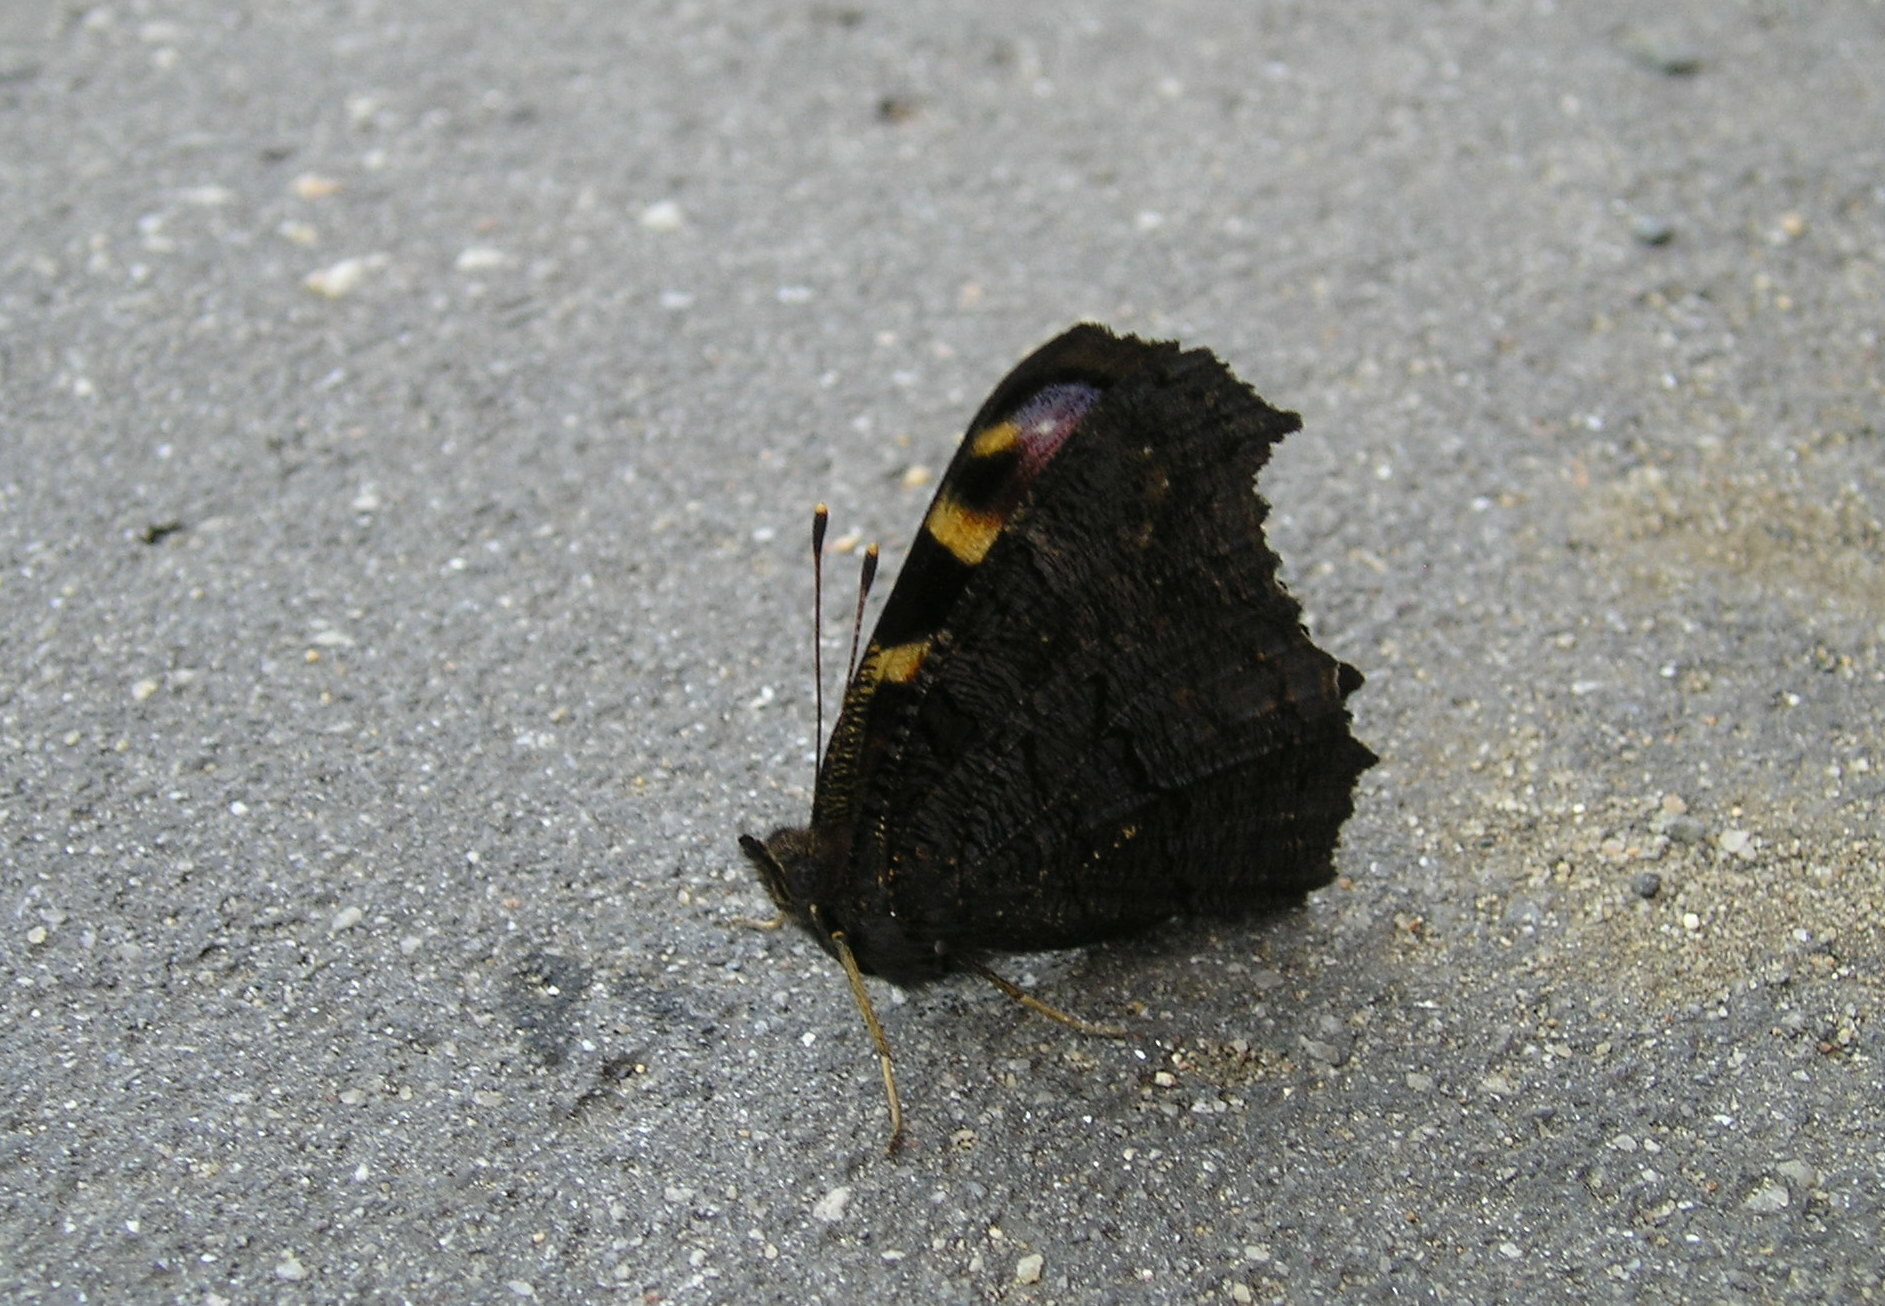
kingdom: Animalia
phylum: Arthropoda
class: Insecta
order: Lepidoptera
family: Nymphalidae
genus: Aglais
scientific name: Aglais io
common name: Peacock
